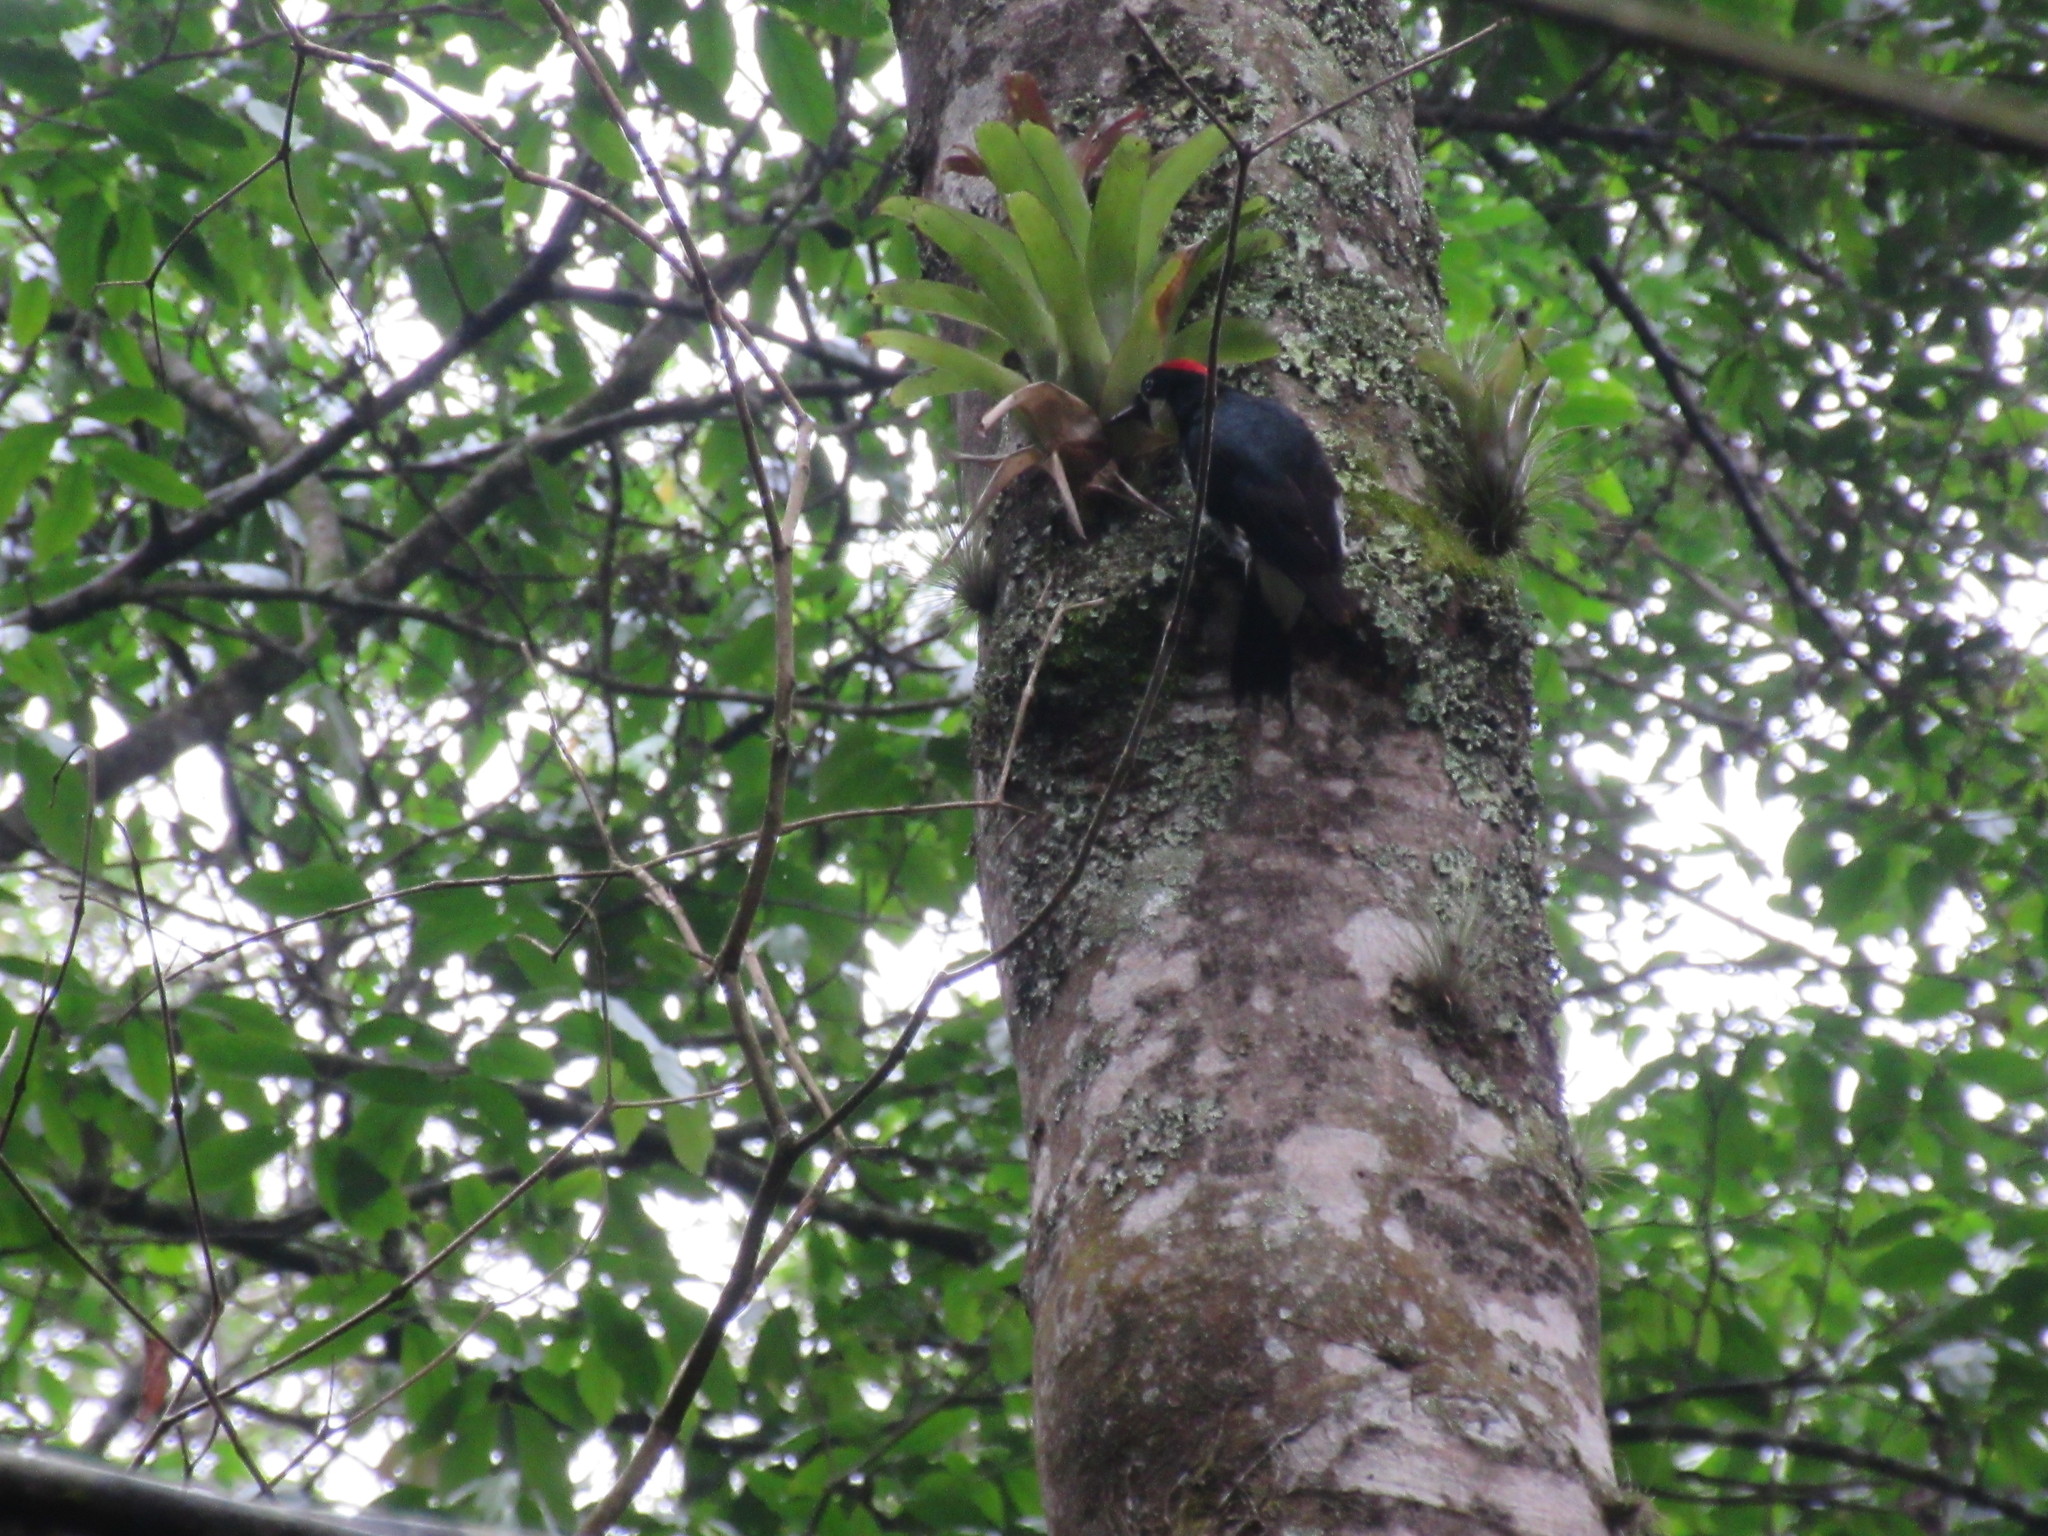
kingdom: Animalia
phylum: Chordata
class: Aves
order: Piciformes
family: Picidae
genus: Melanerpes
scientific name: Melanerpes formicivorus
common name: Acorn woodpecker
